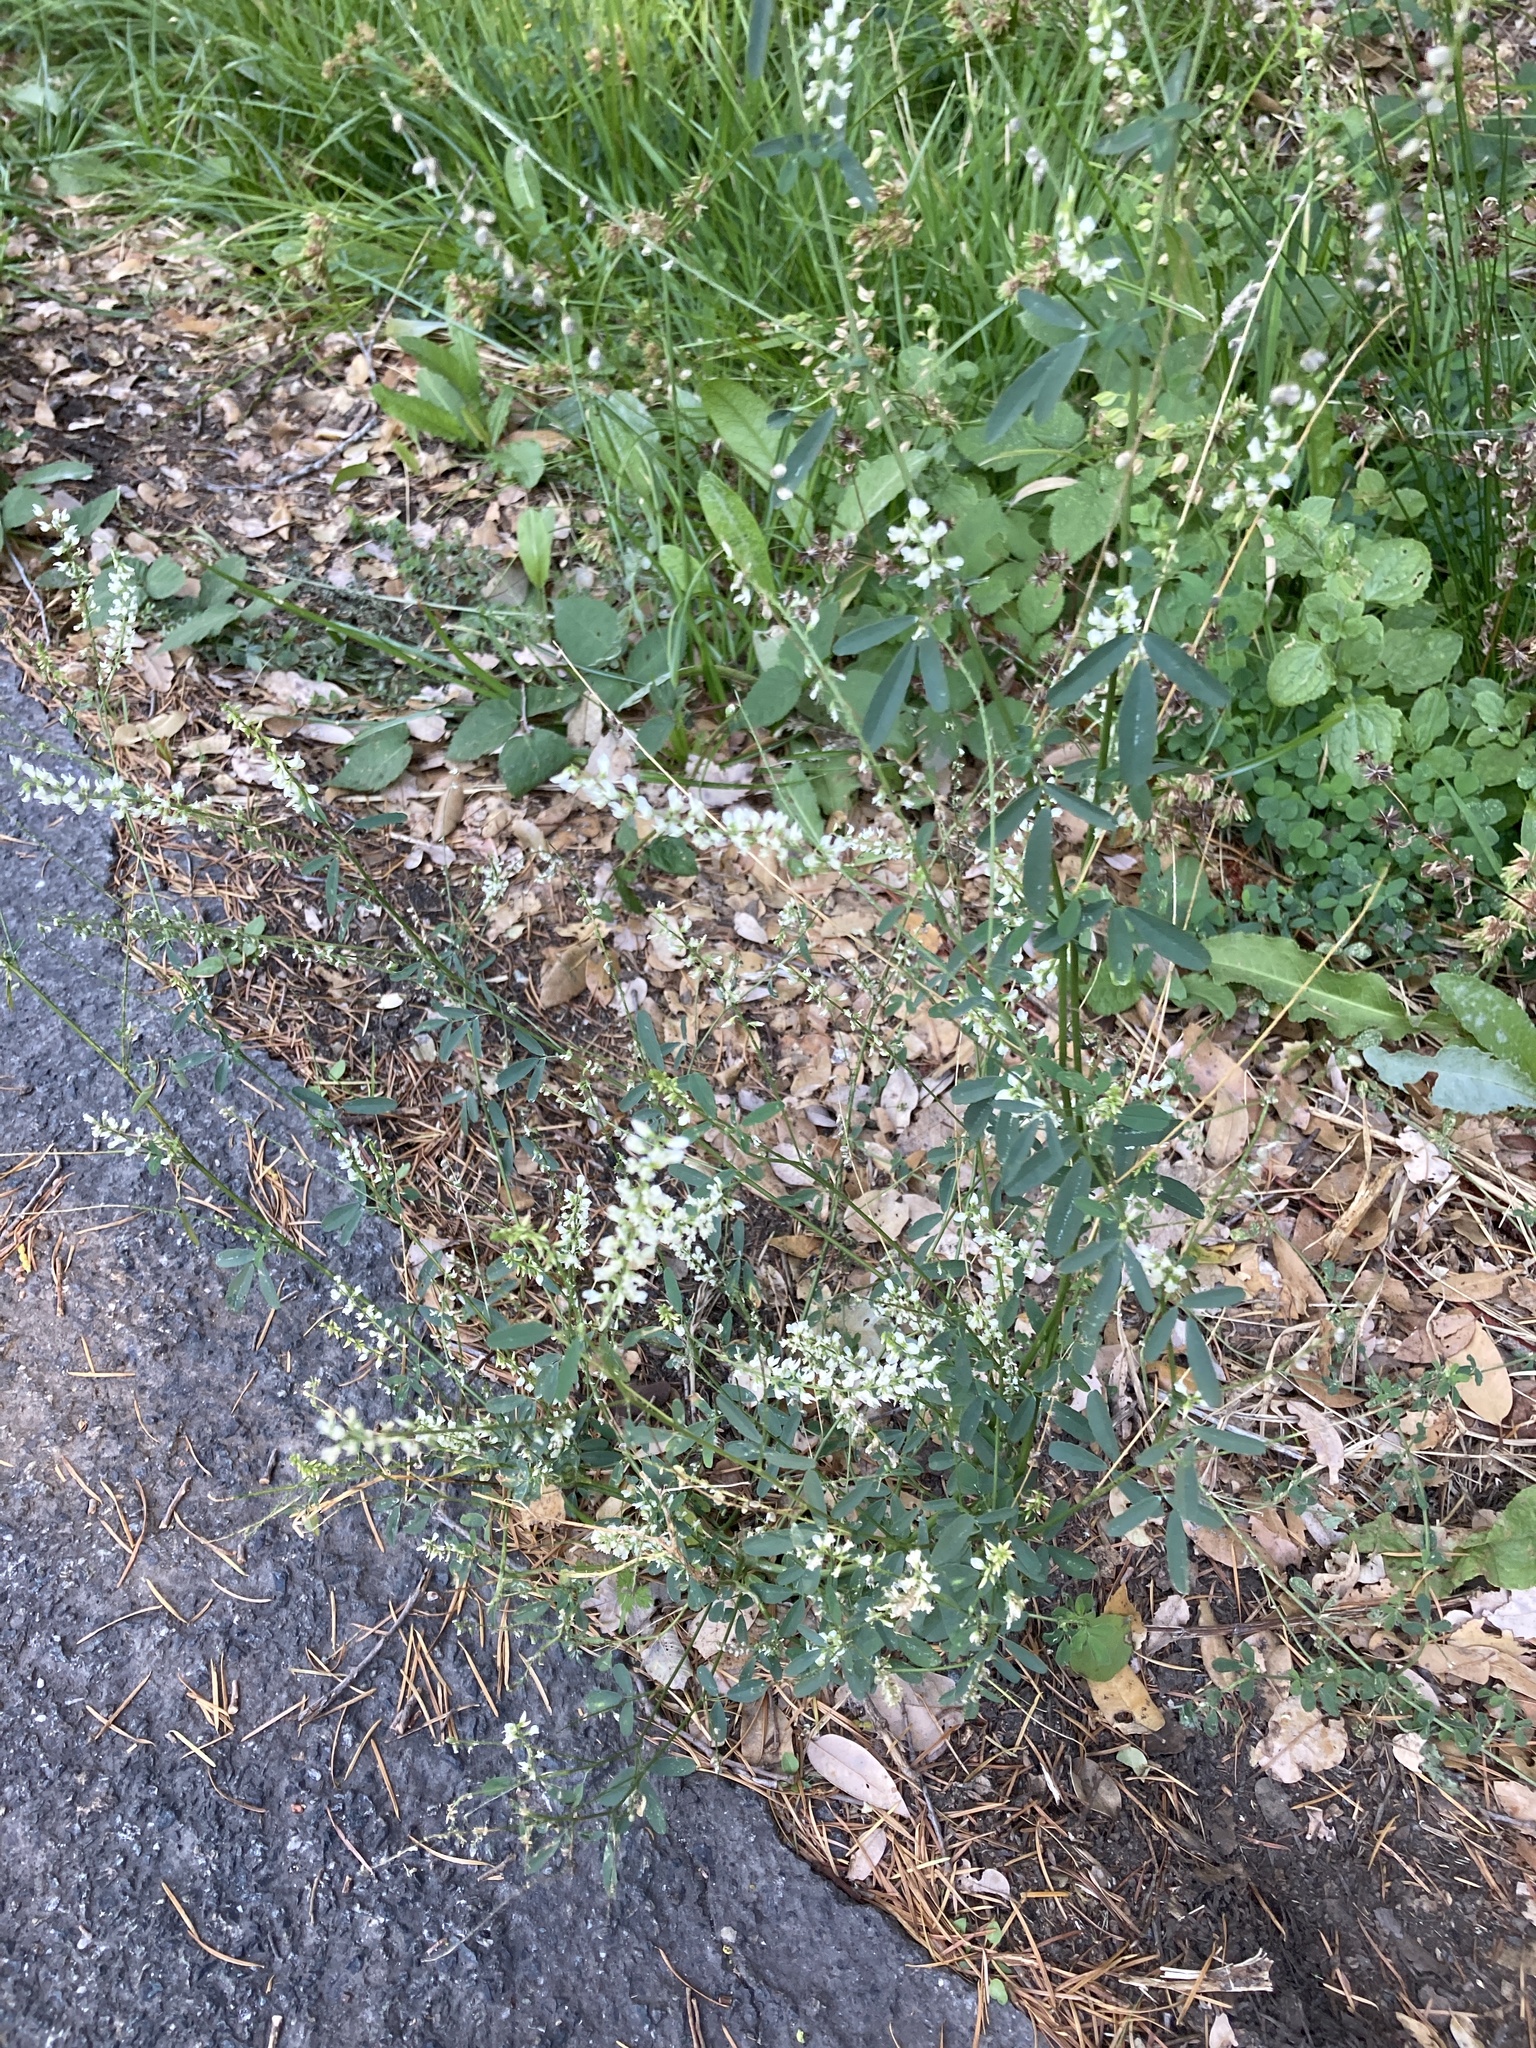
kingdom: Plantae
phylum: Tracheophyta
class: Magnoliopsida
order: Fabales
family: Fabaceae
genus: Melilotus
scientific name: Melilotus albus
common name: White melilot
